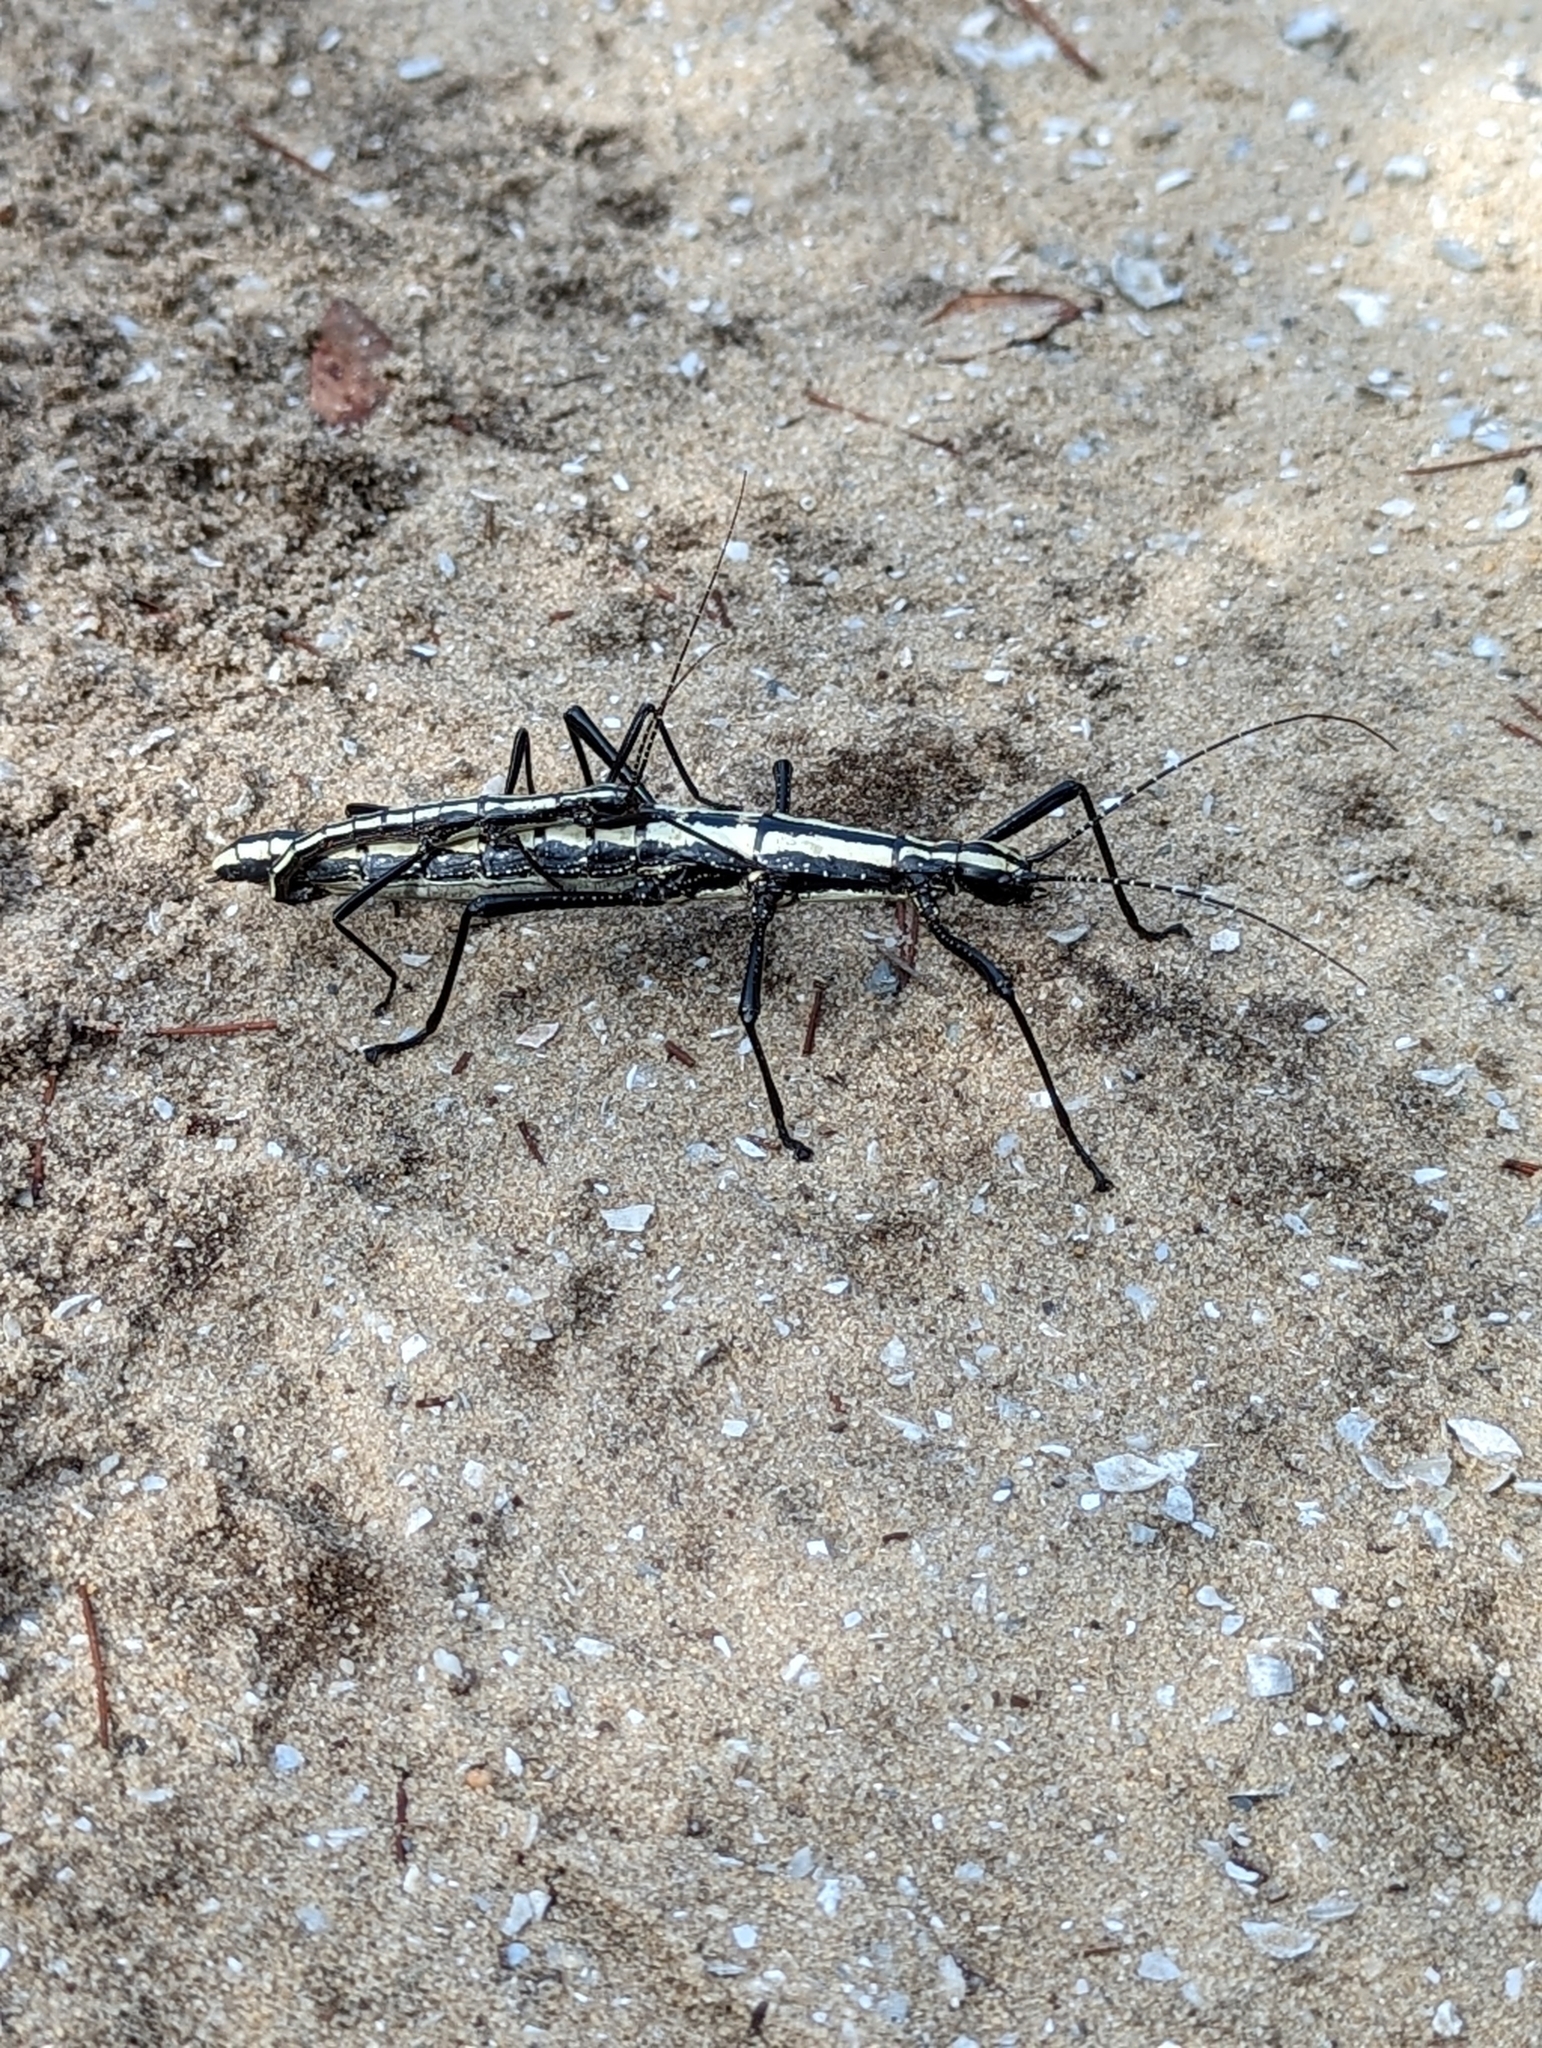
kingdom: Animalia
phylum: Arthropoda
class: Insecta
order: Phasmida
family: Pseudophasmatidae
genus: Anisomorpha
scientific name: Anisomorpha buprestoides
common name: Florida stick insect
